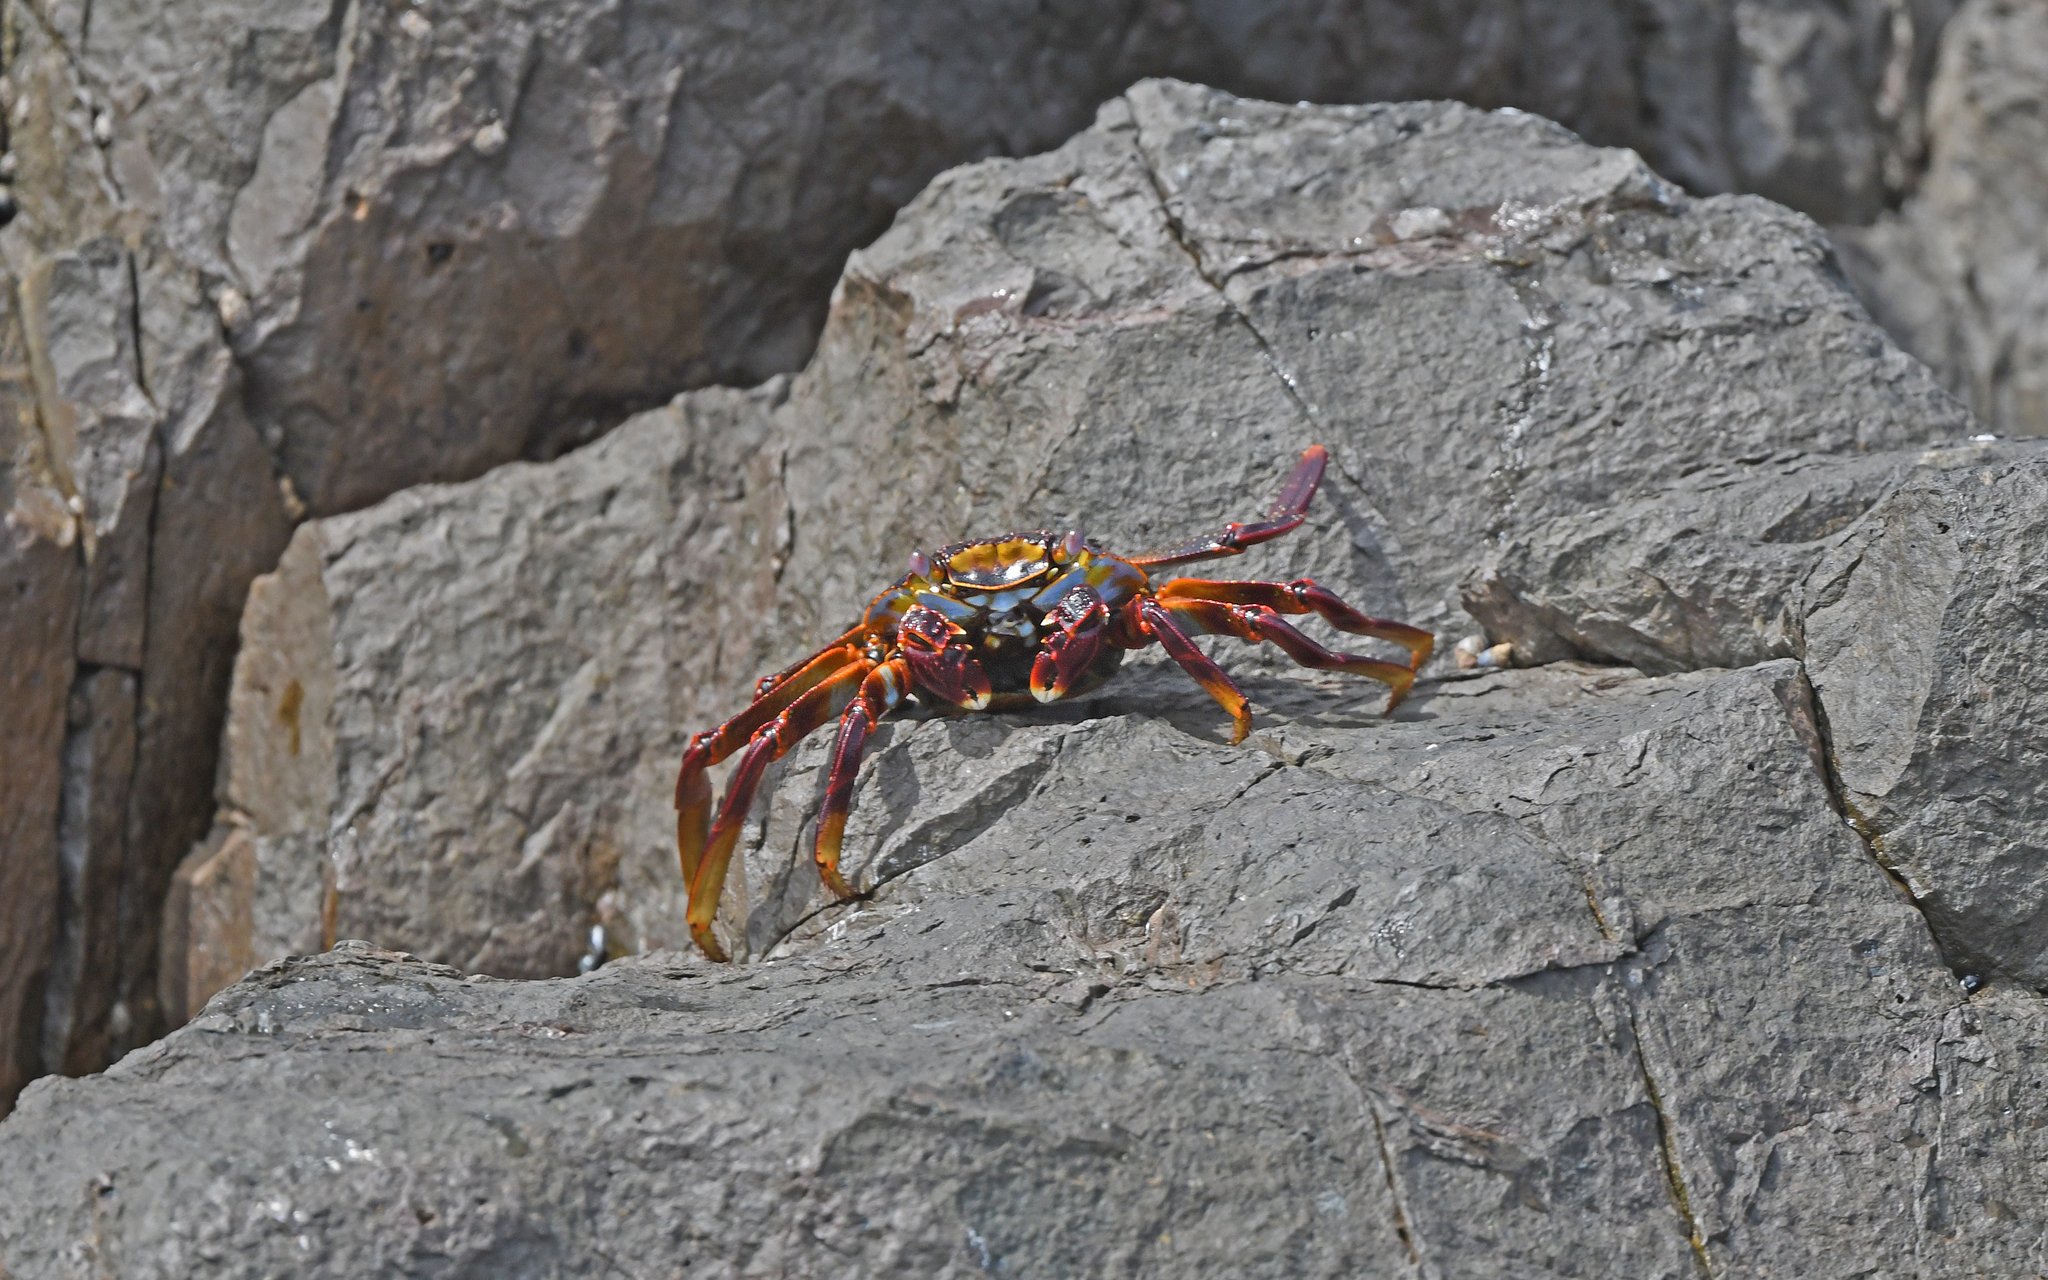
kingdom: Animalia
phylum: Arthropoda
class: Malacostraca
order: Decapoda
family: Grapsidae
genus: Grapsus
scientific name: Grapsus grapsus
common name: Sally lightfoot
